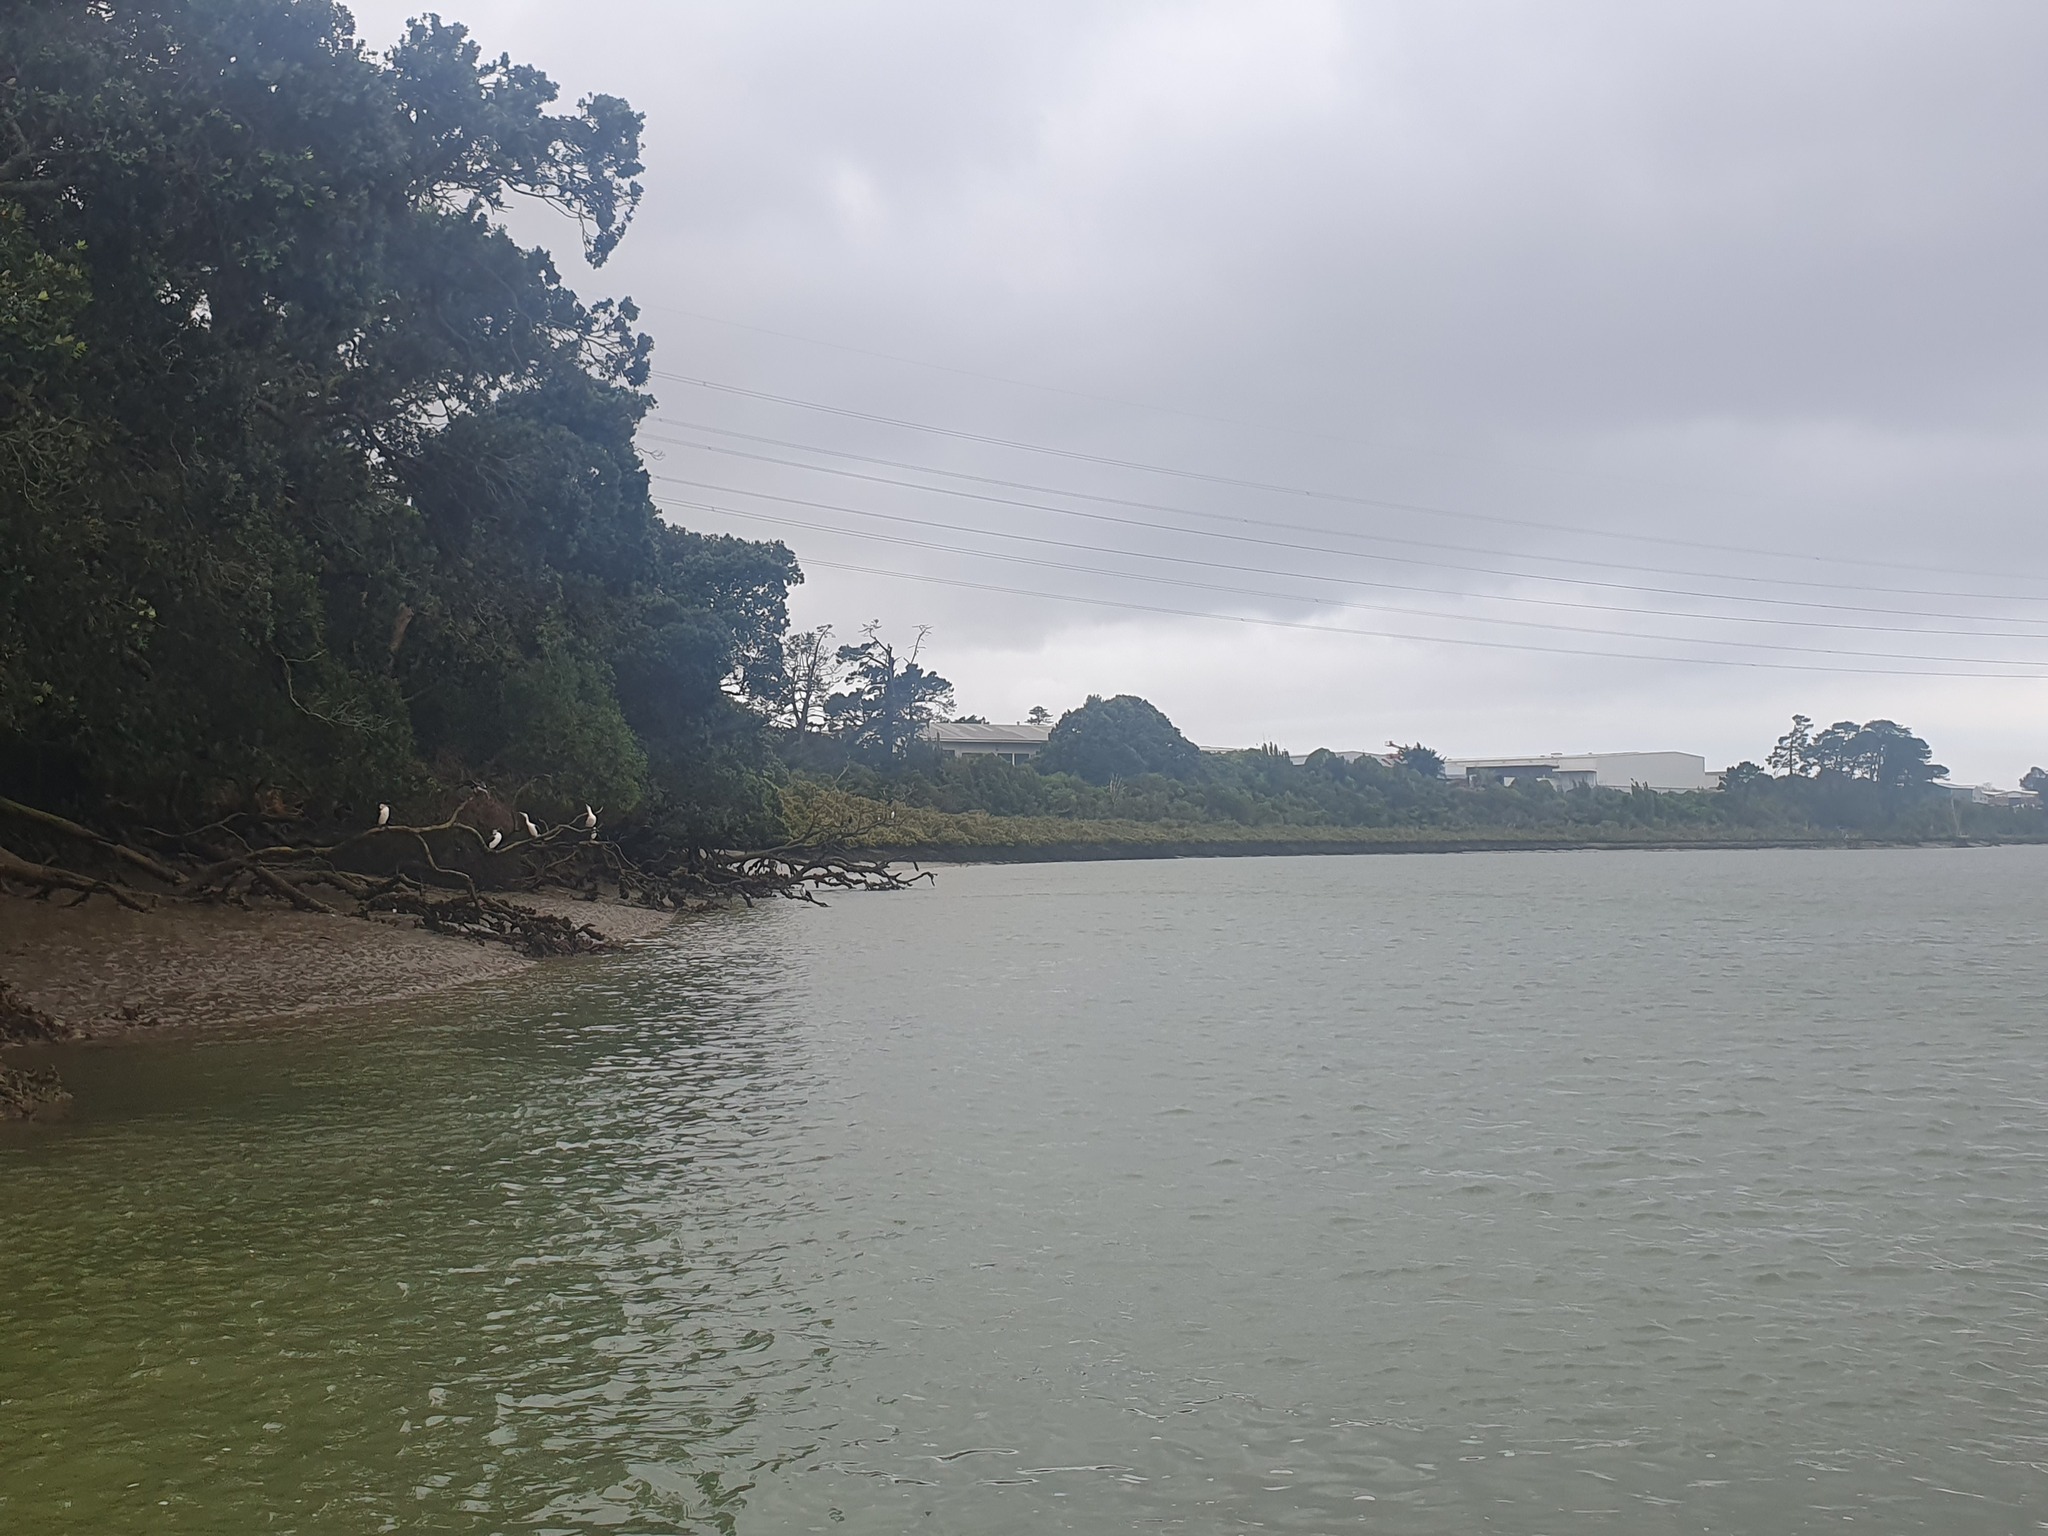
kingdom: Animalia
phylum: Chordata
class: Aves
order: Suliformes
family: Phalacrocoracidae
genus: Phalacrocorax
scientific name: Phalacrocorax varius
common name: Pied cormorant
